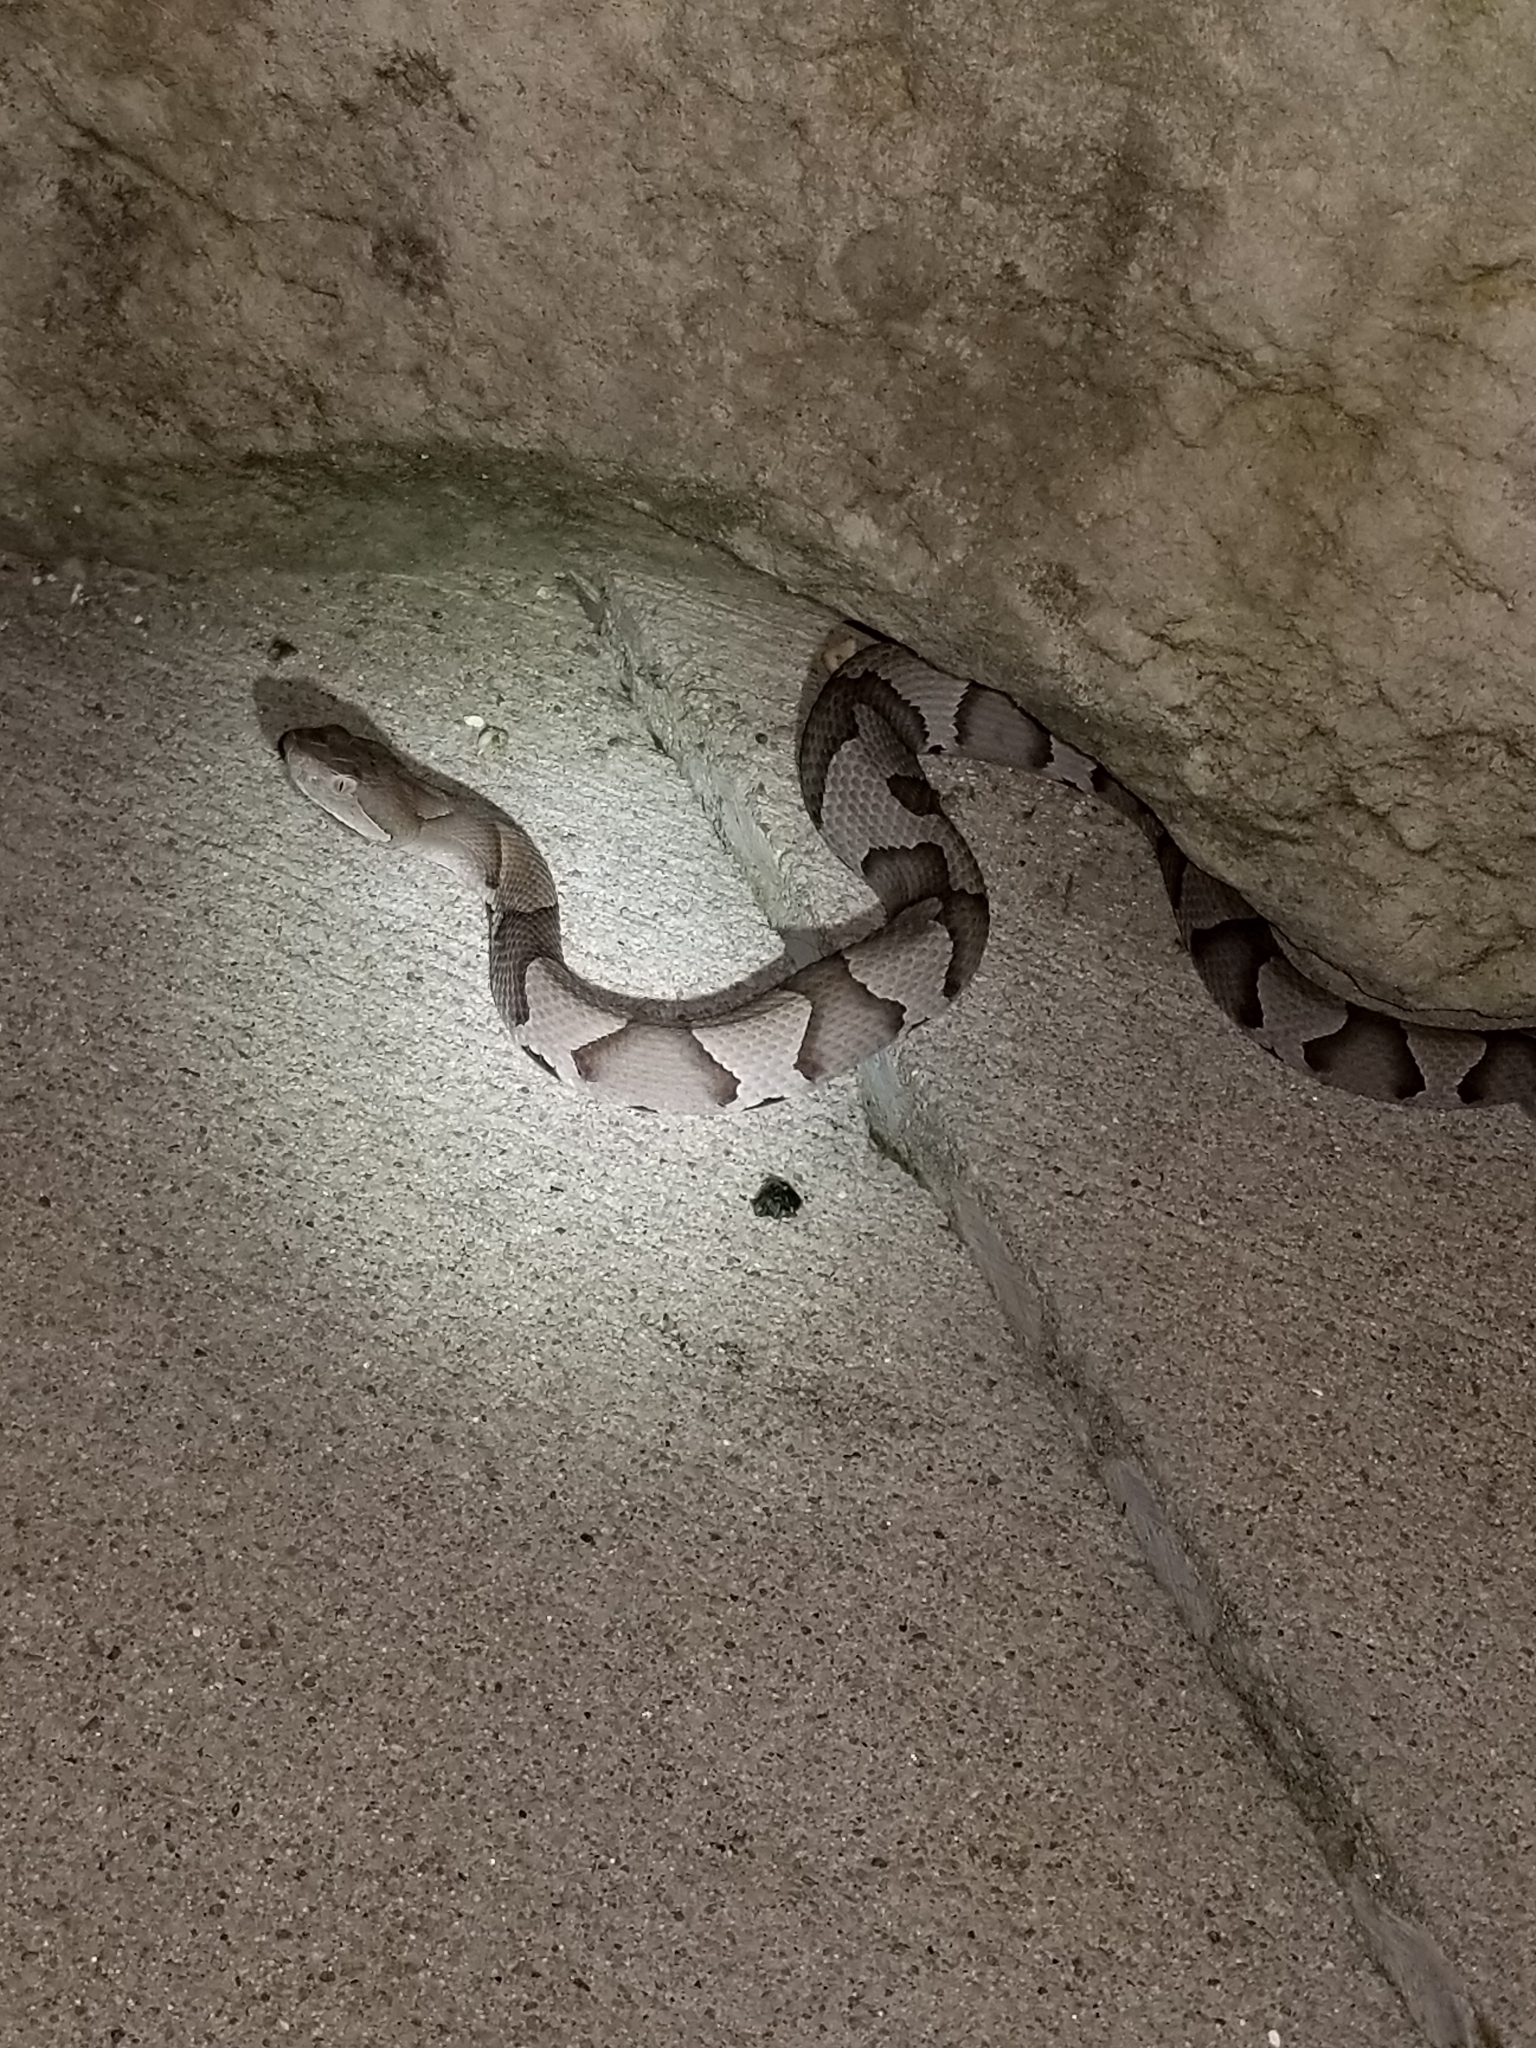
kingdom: Animalia
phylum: Chordata
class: Squamata
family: Viperidae
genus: Agkistrodon
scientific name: Agkistrodon contortrix
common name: Northern copperhead
